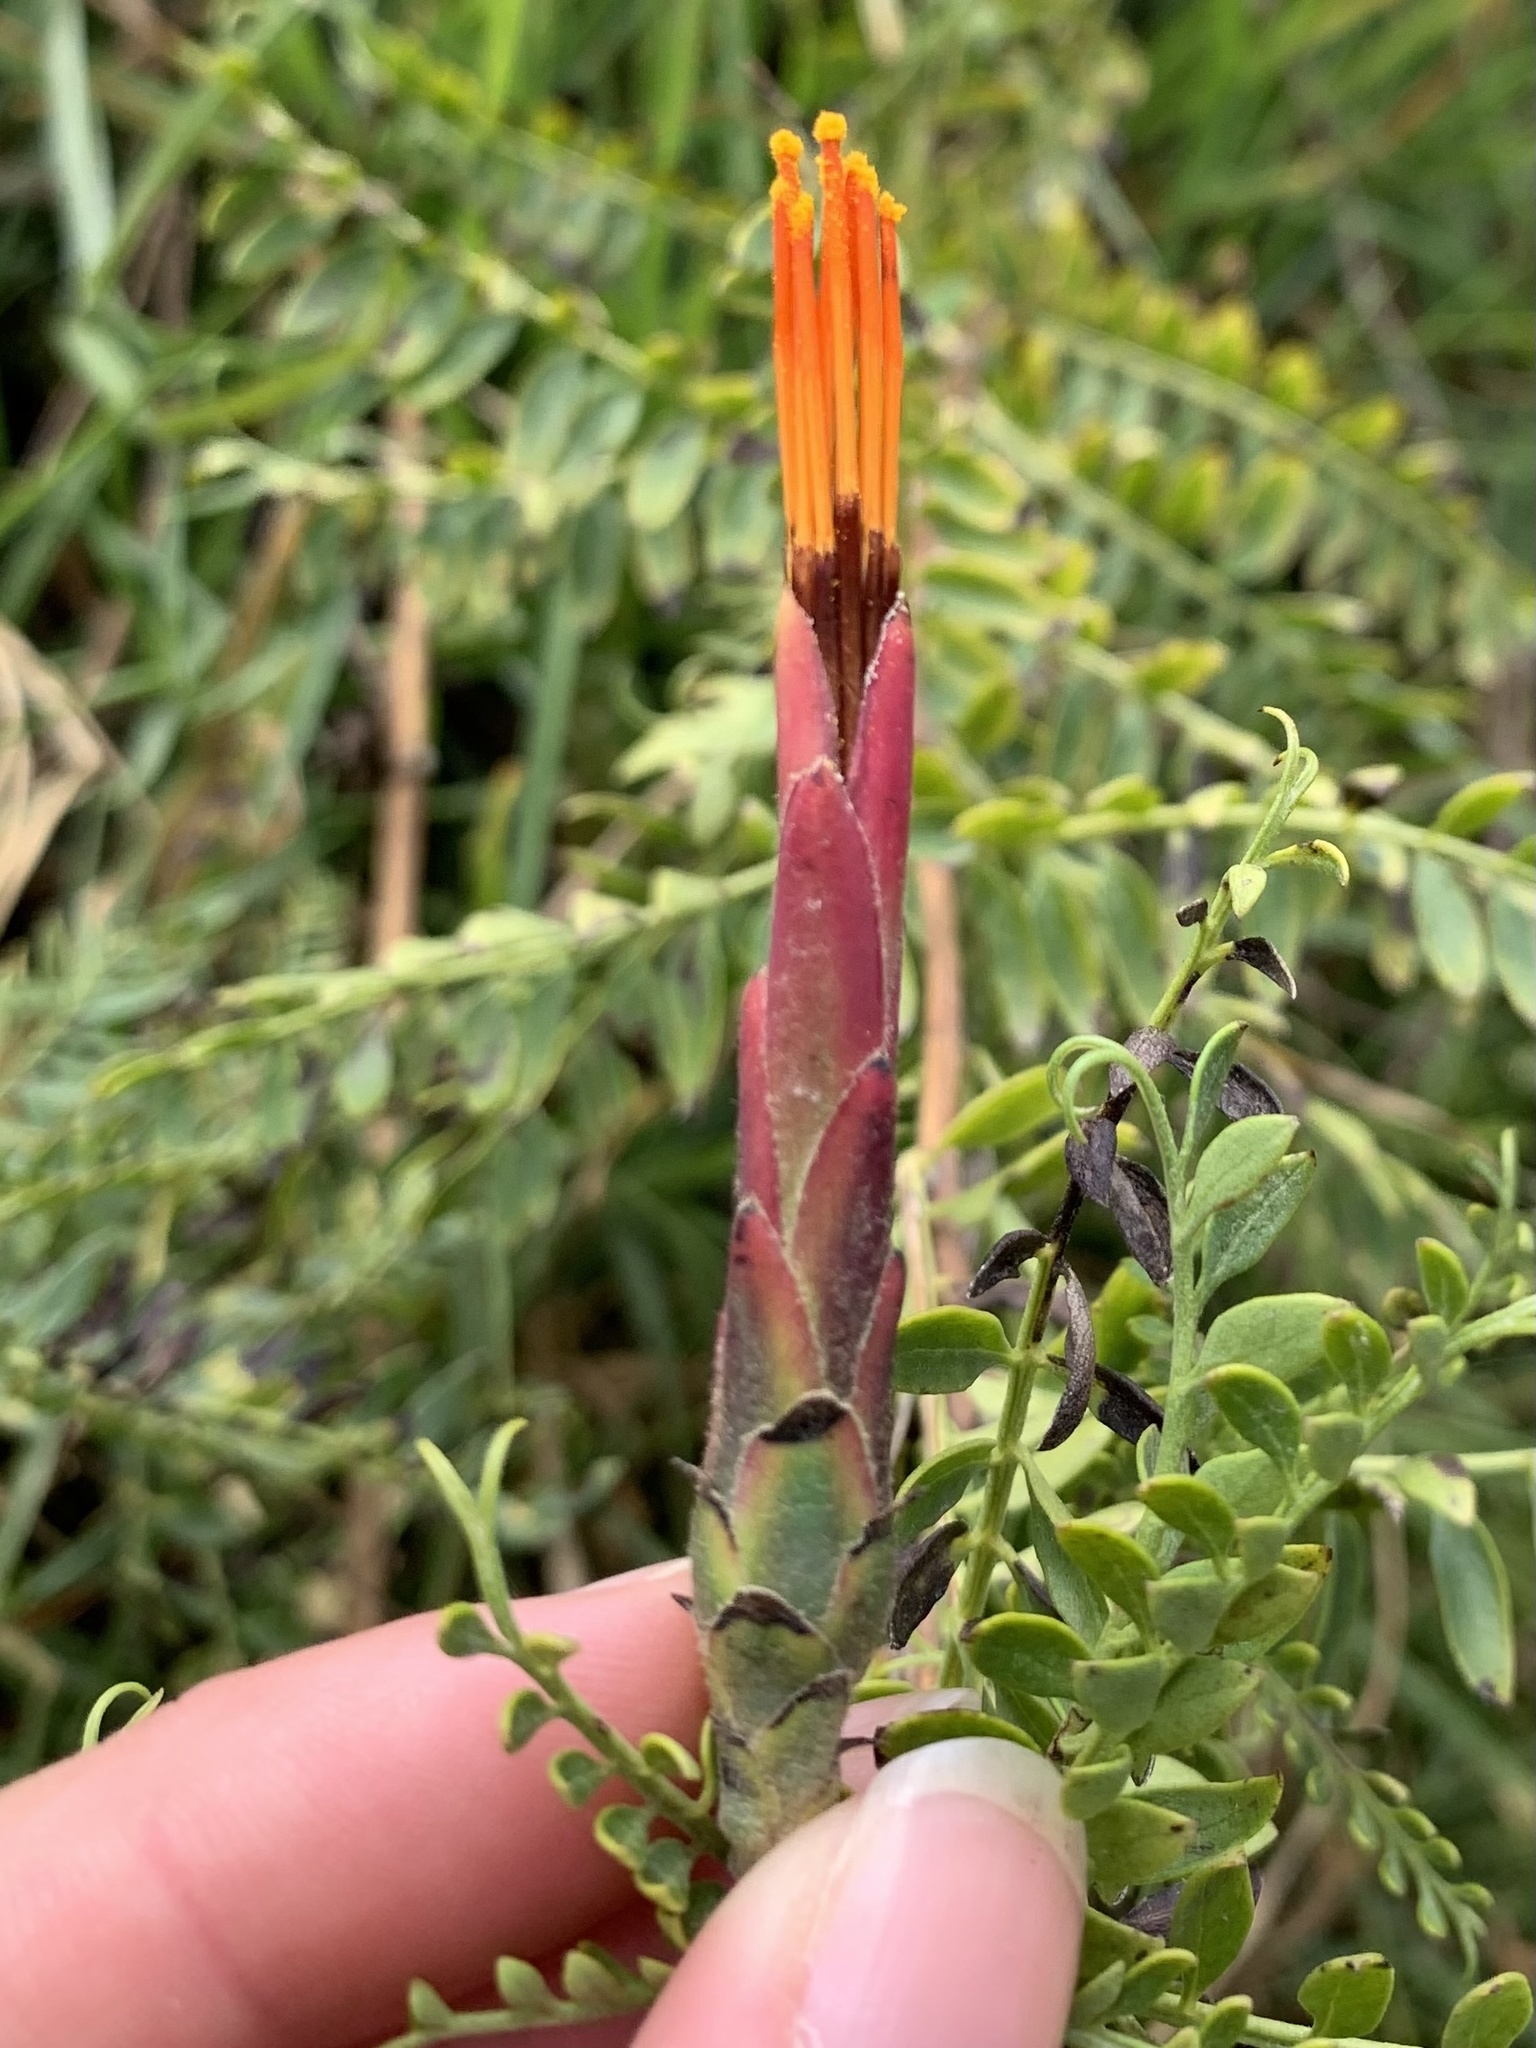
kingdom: Plantae
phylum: Tracheophyta
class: Magnoliopsida
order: Asterales
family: Asteraceae
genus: Mutisia
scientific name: Mutisia acuminata
